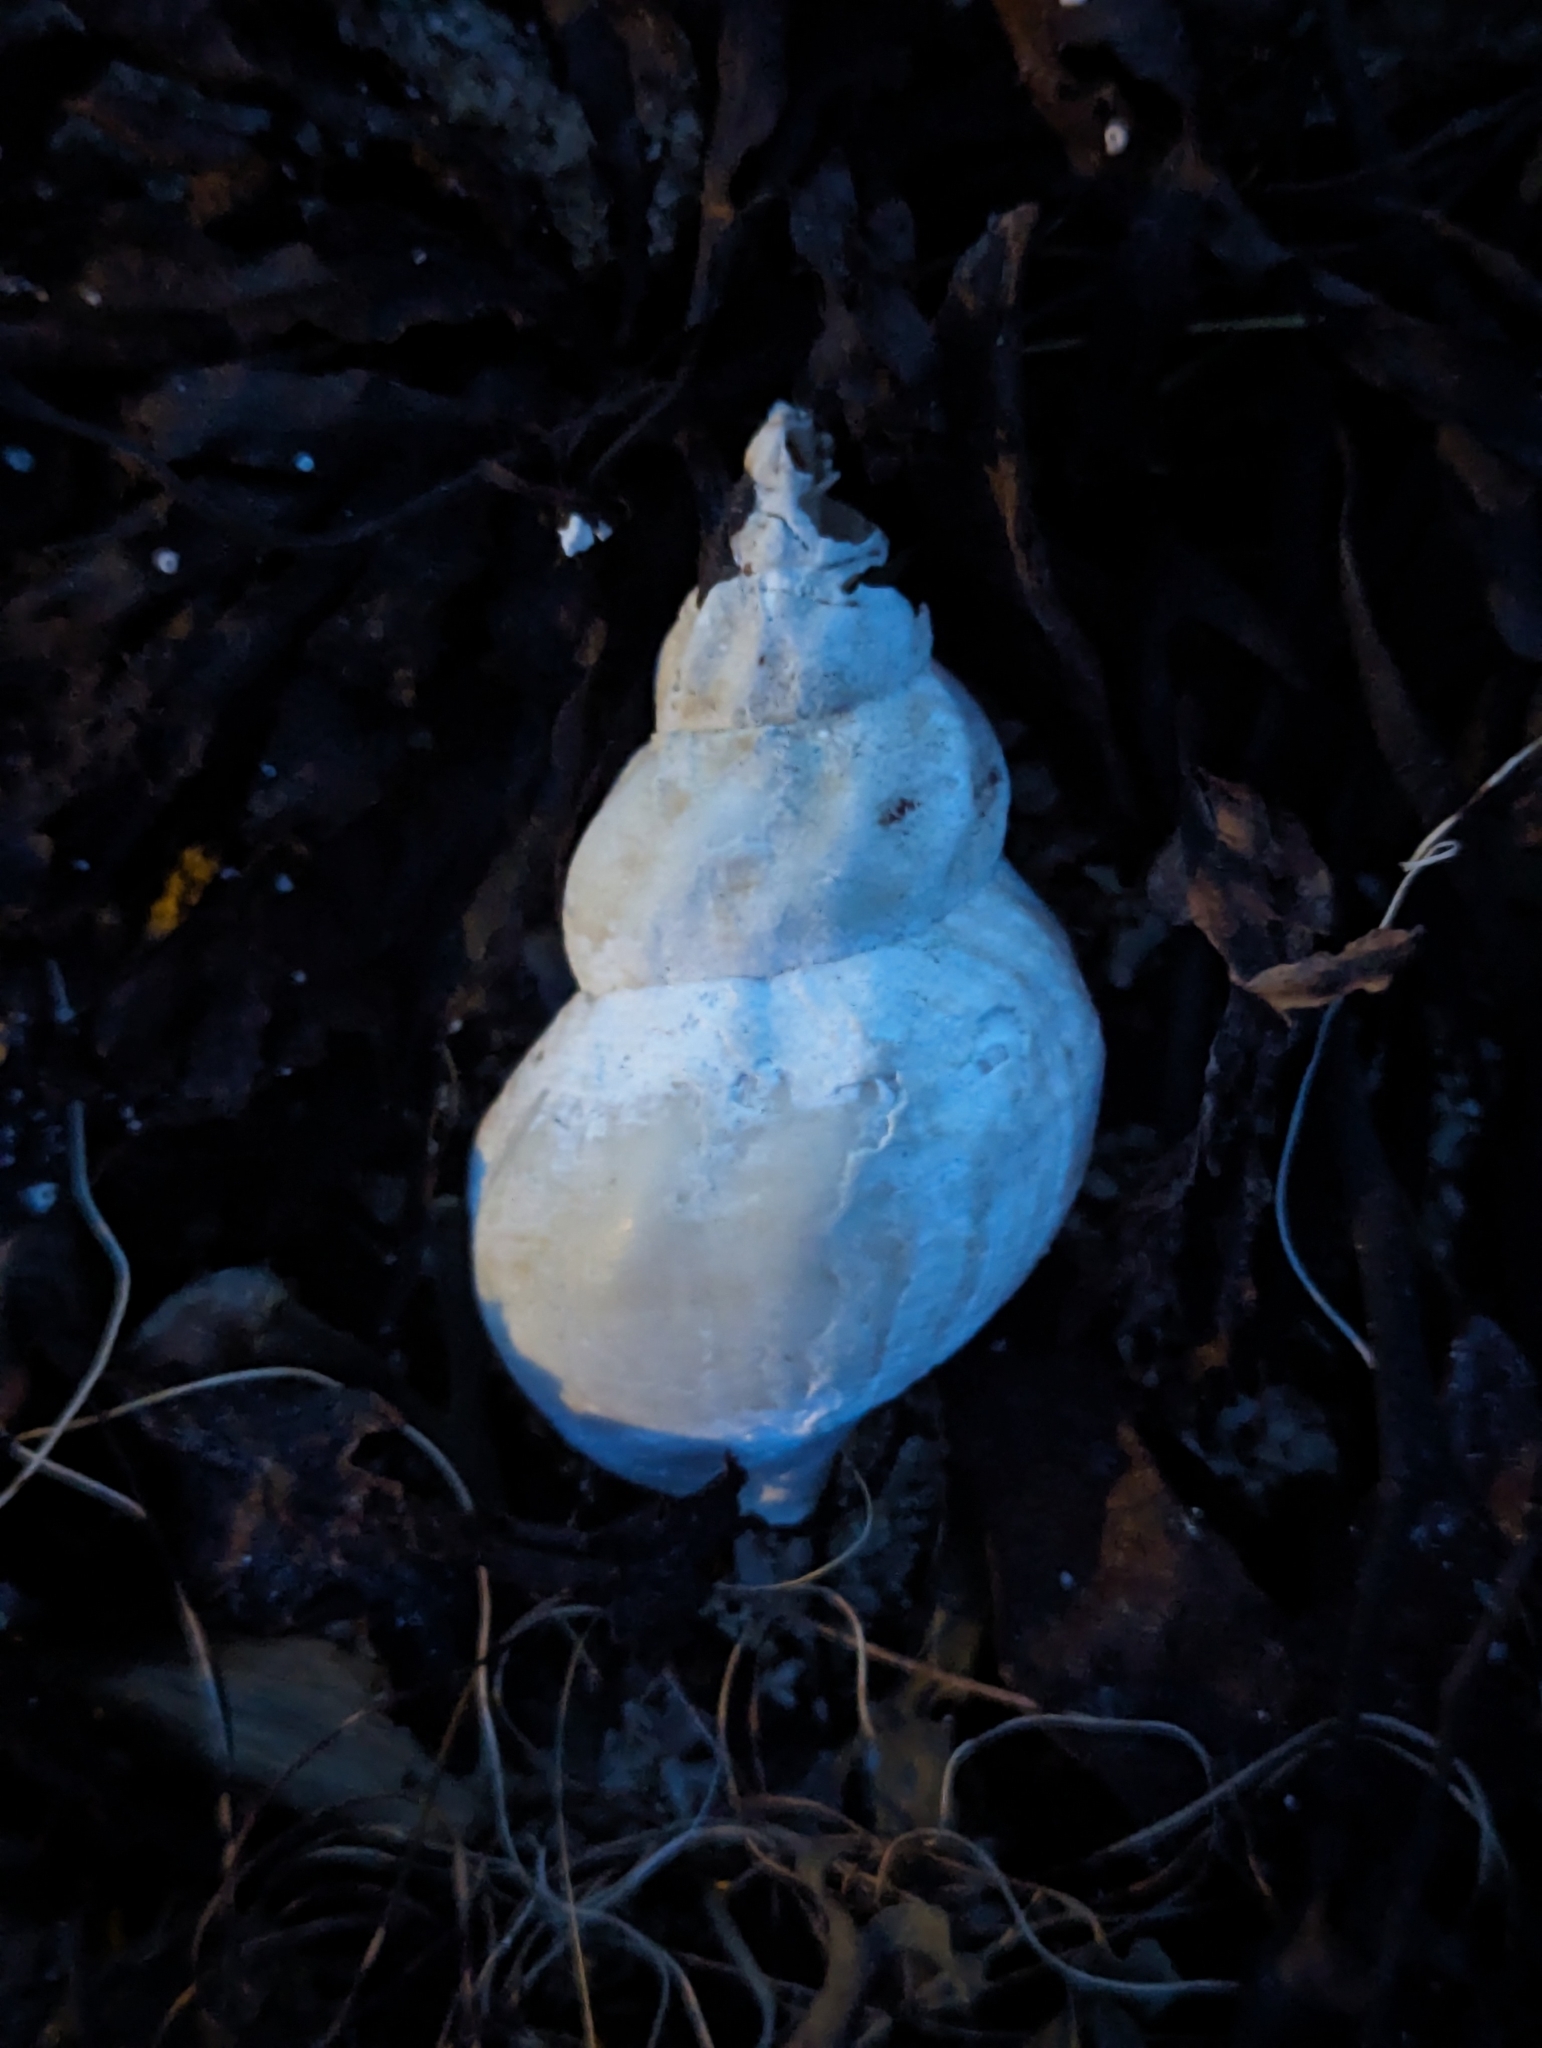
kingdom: Animalia
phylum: Mollusca
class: Gastropoda
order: Neogastropoda
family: Buccinidae
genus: Buccinum
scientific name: Buccinum undatum
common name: Common whelk
